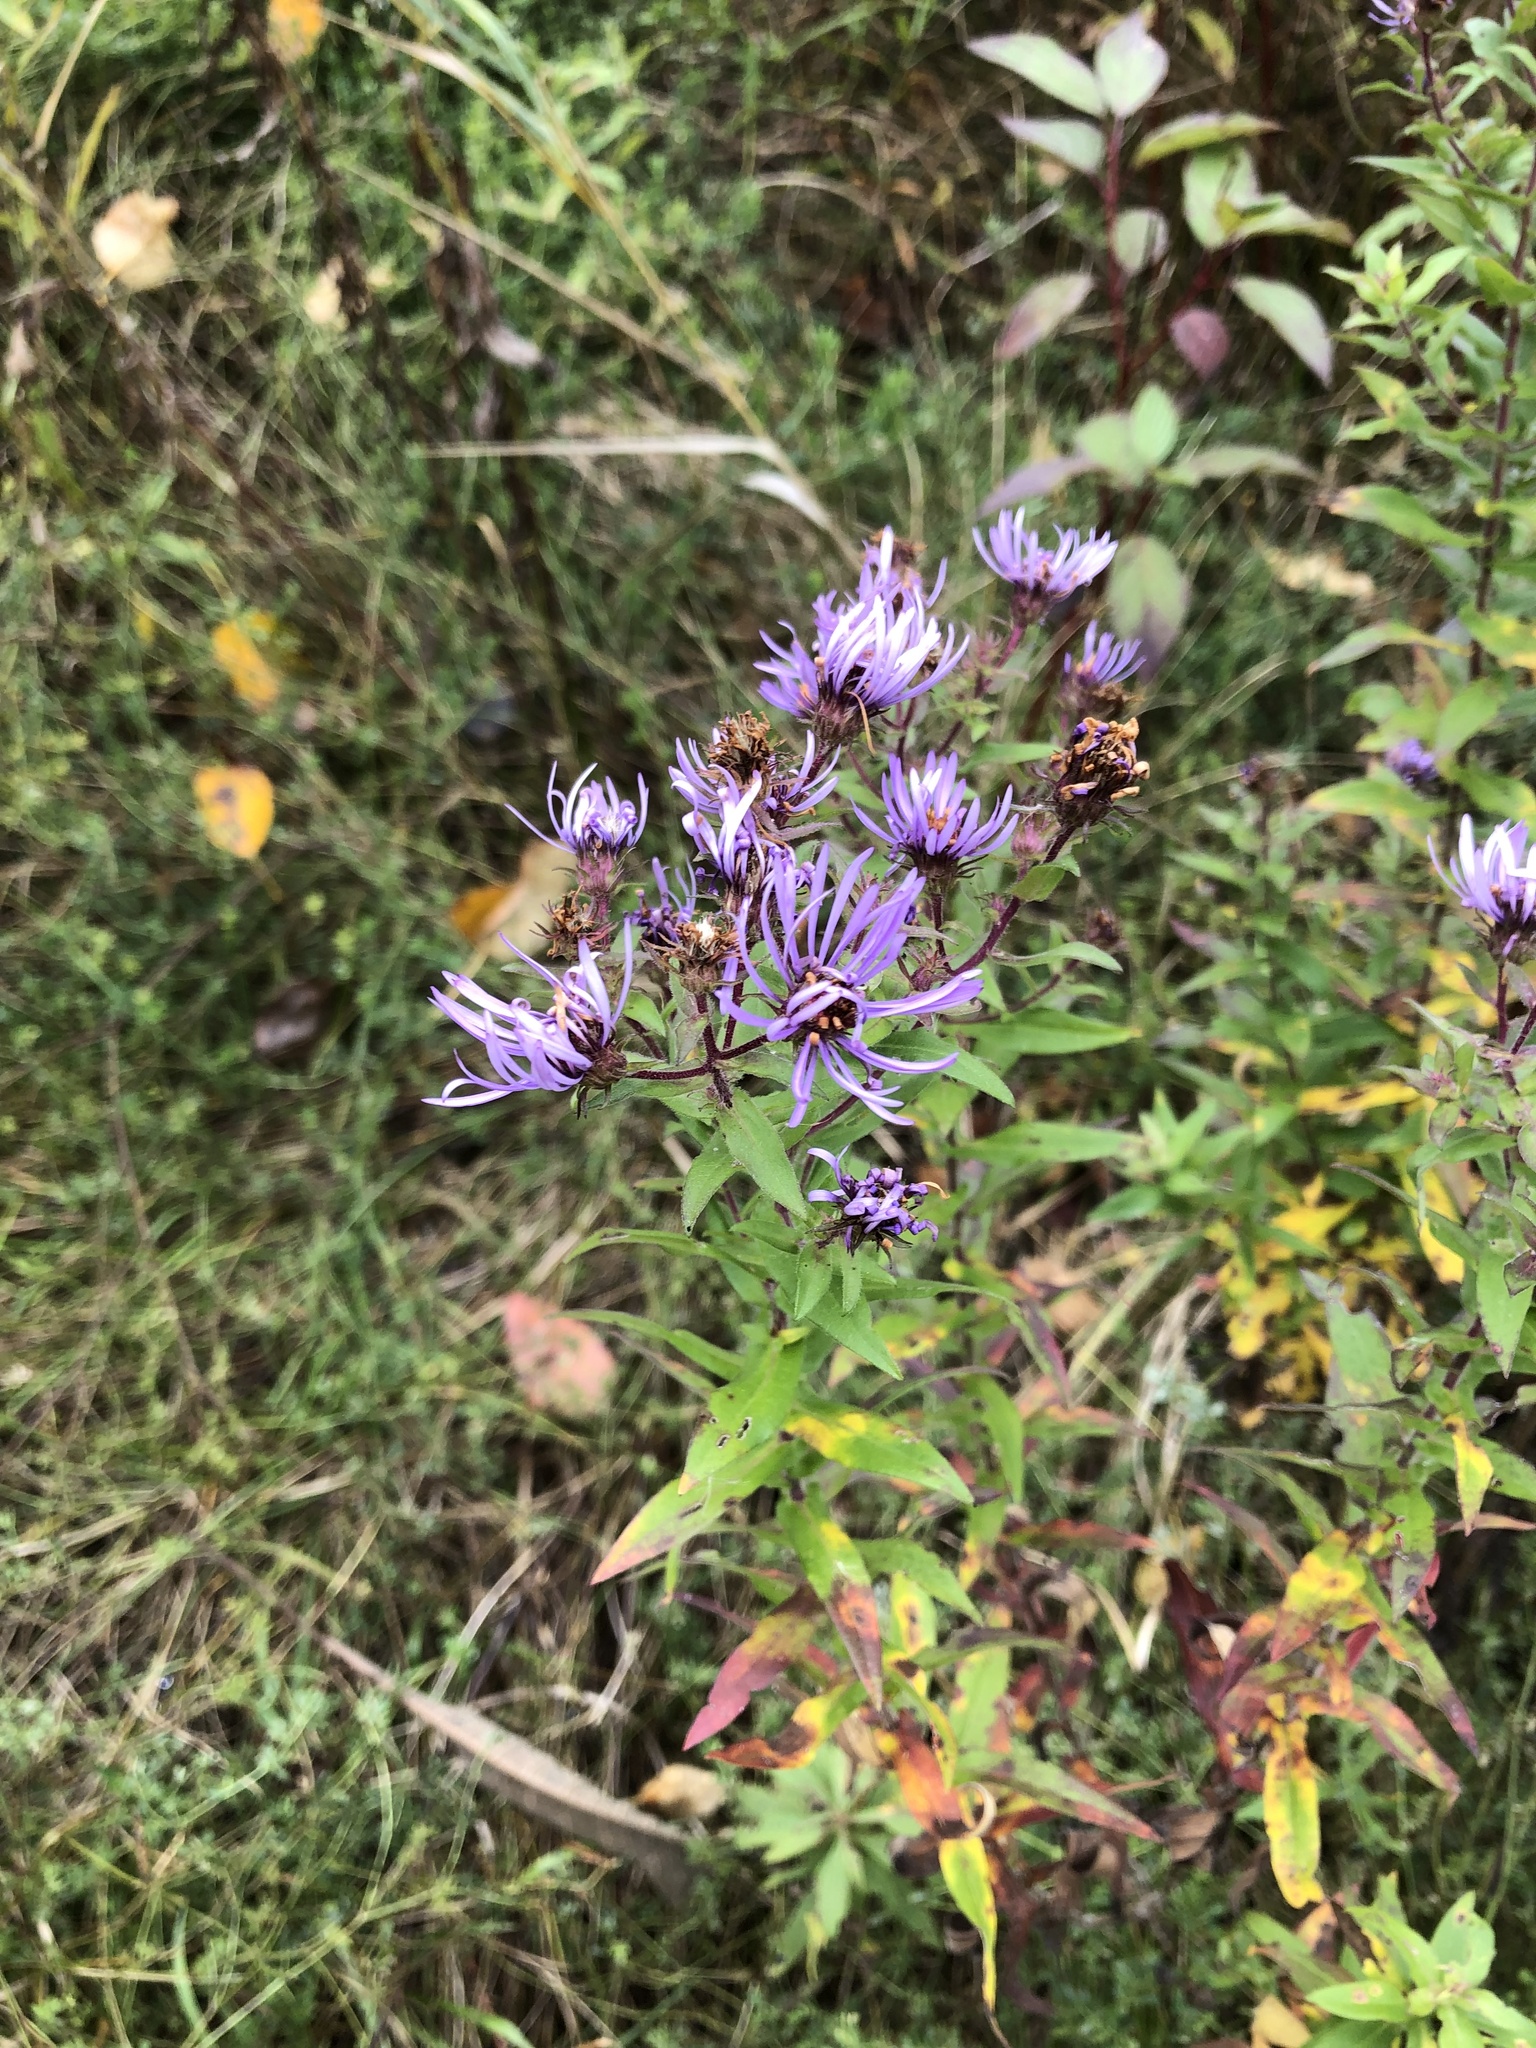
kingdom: Plantae
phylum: Tracheophyta
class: Magnoliopsida
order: Asterales
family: Asteraceae
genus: Symphyotrichum
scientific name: Symphyotrichum novae-angliae
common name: Michaelmas daisy
